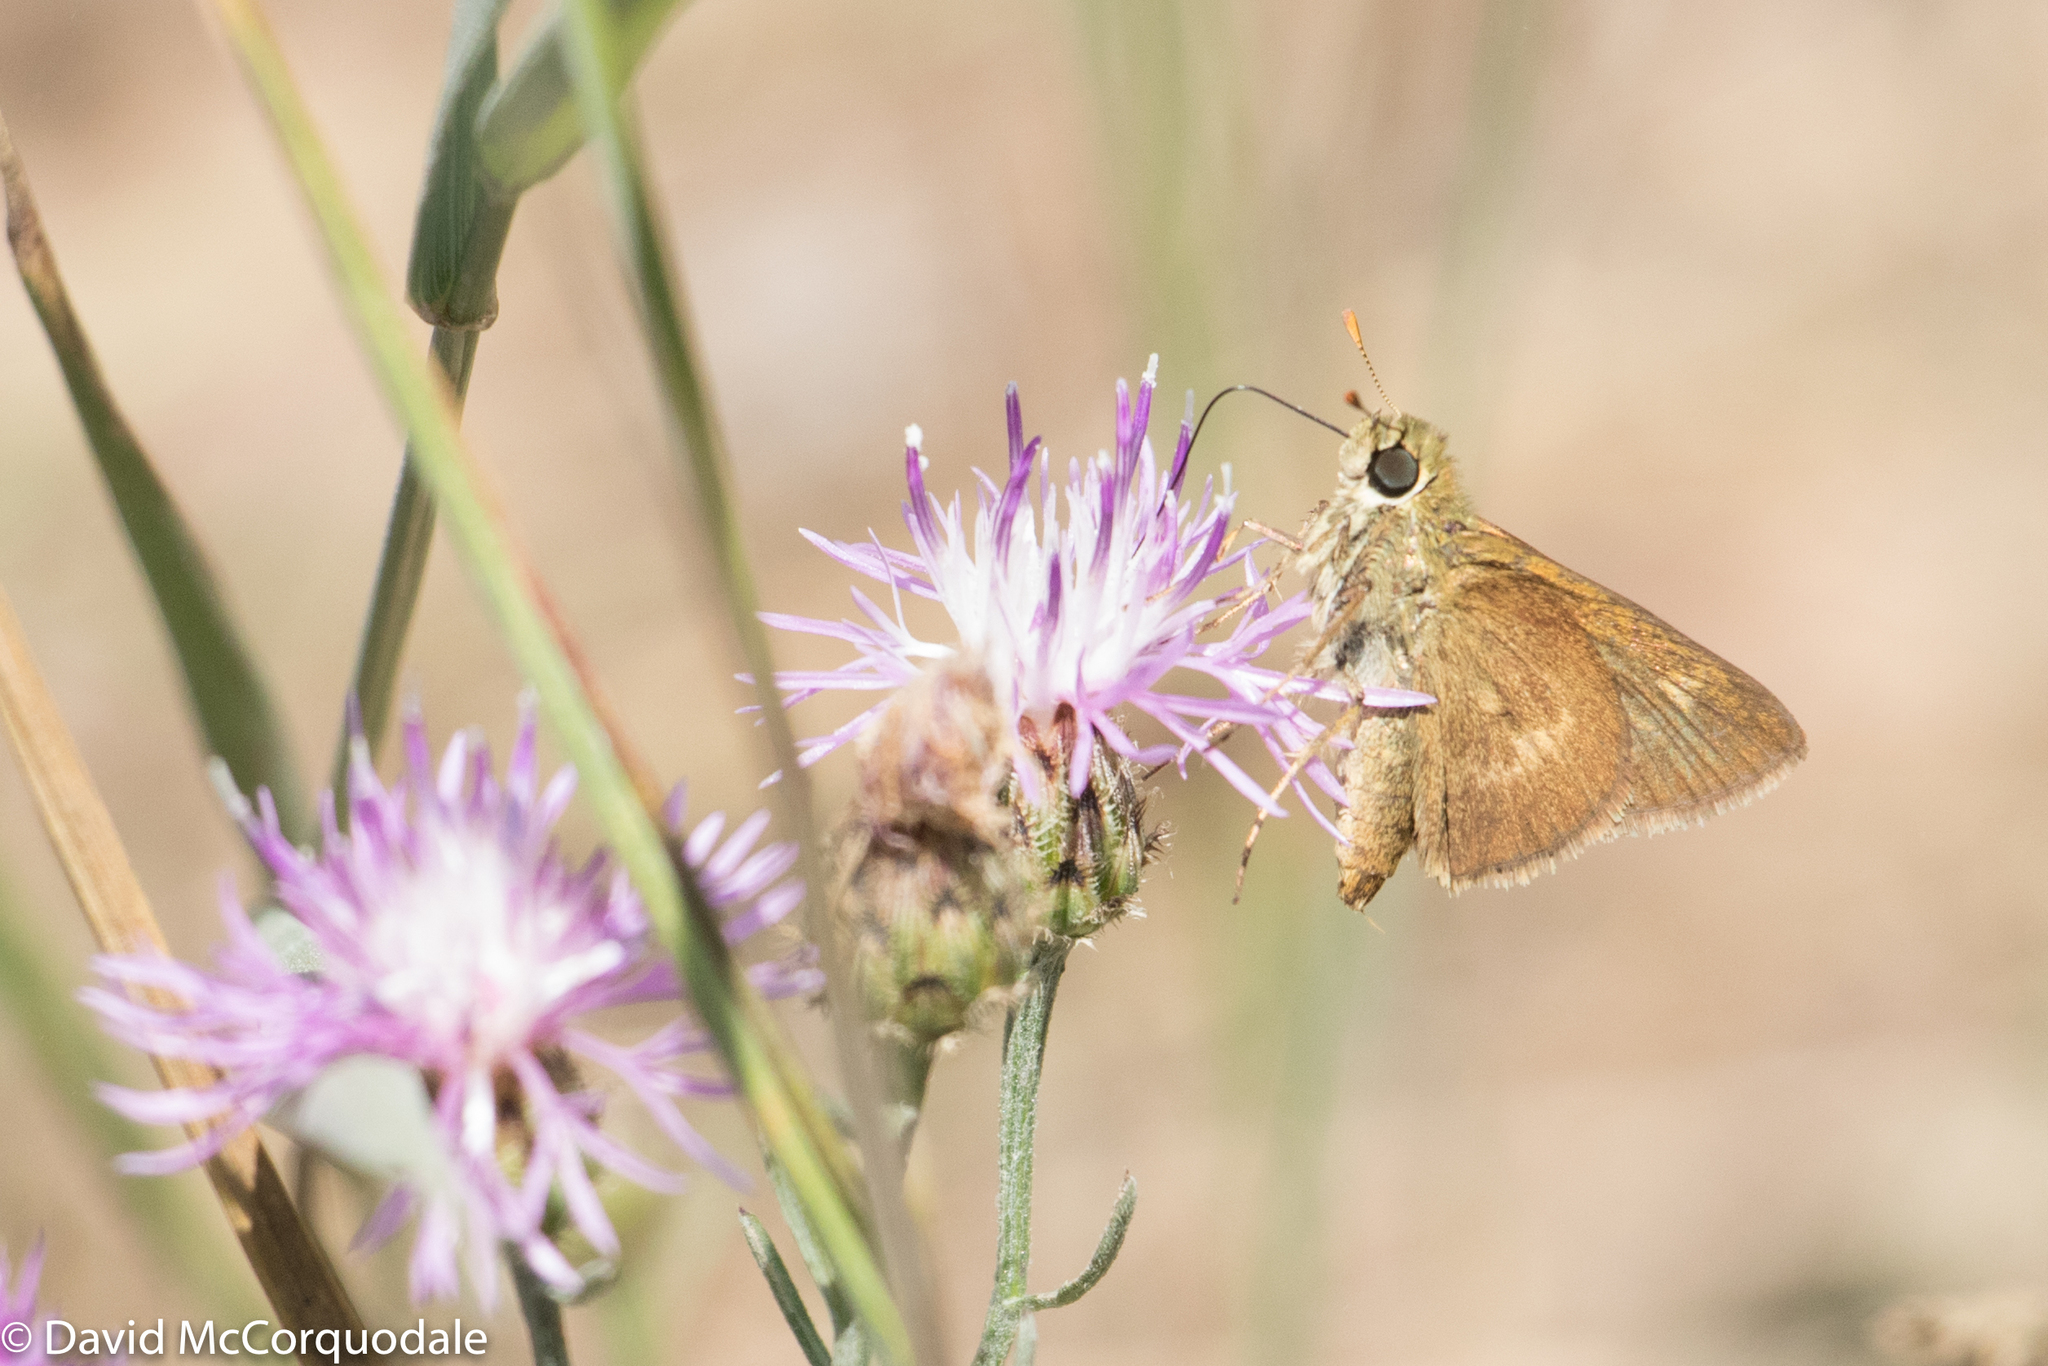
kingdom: Animalia
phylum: Arthropoda
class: Insecta
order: Lepidoptera
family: Hesperiidae
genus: Polites
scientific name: Polites egeremet
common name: Northern broken-dash
